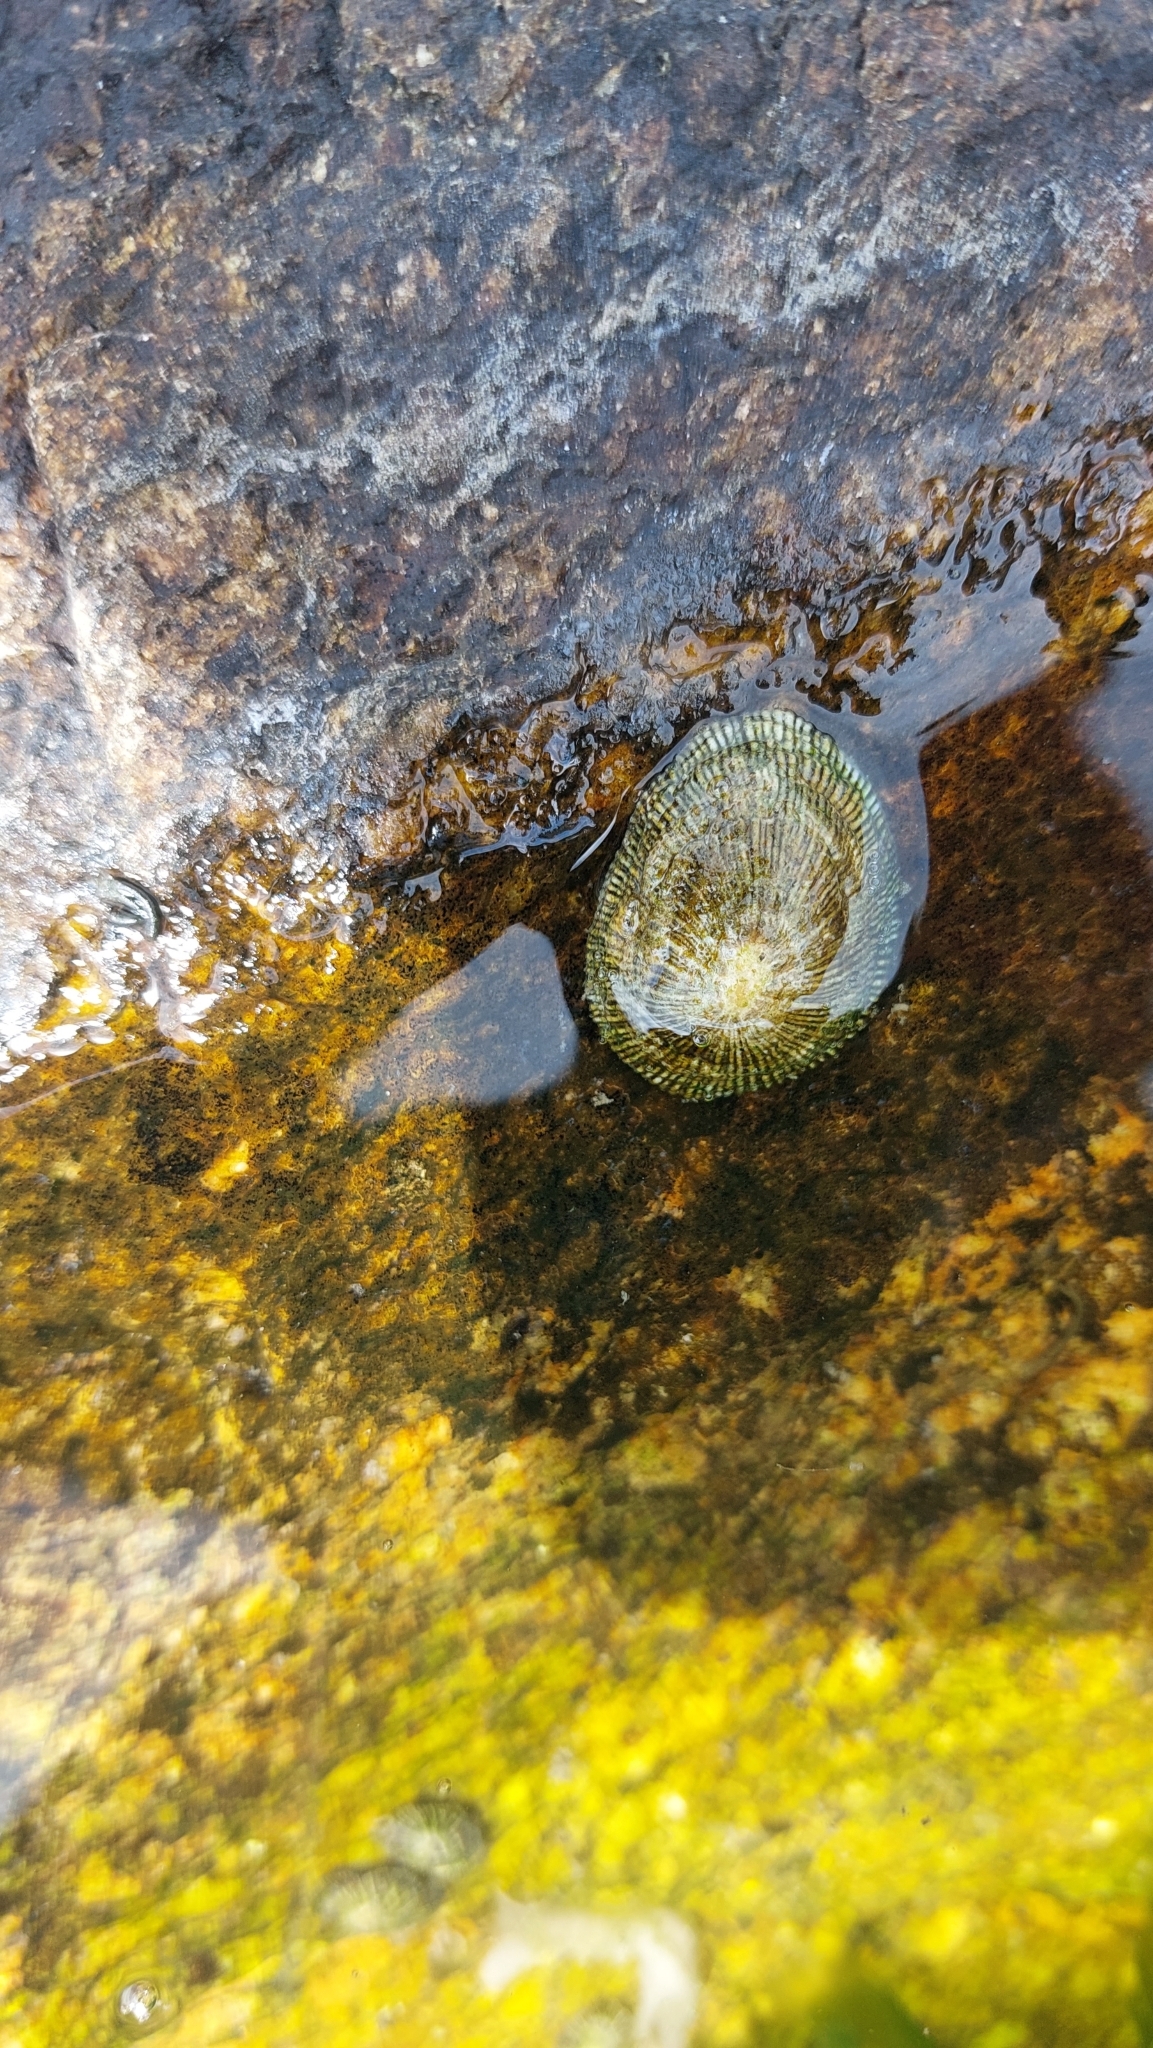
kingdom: Animalia
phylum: Mollusca
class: Gastropoda
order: Siphonariida
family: Siphonariidae
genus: Siphonaria
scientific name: Siphonaria pectinata
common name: Striped false limpet
